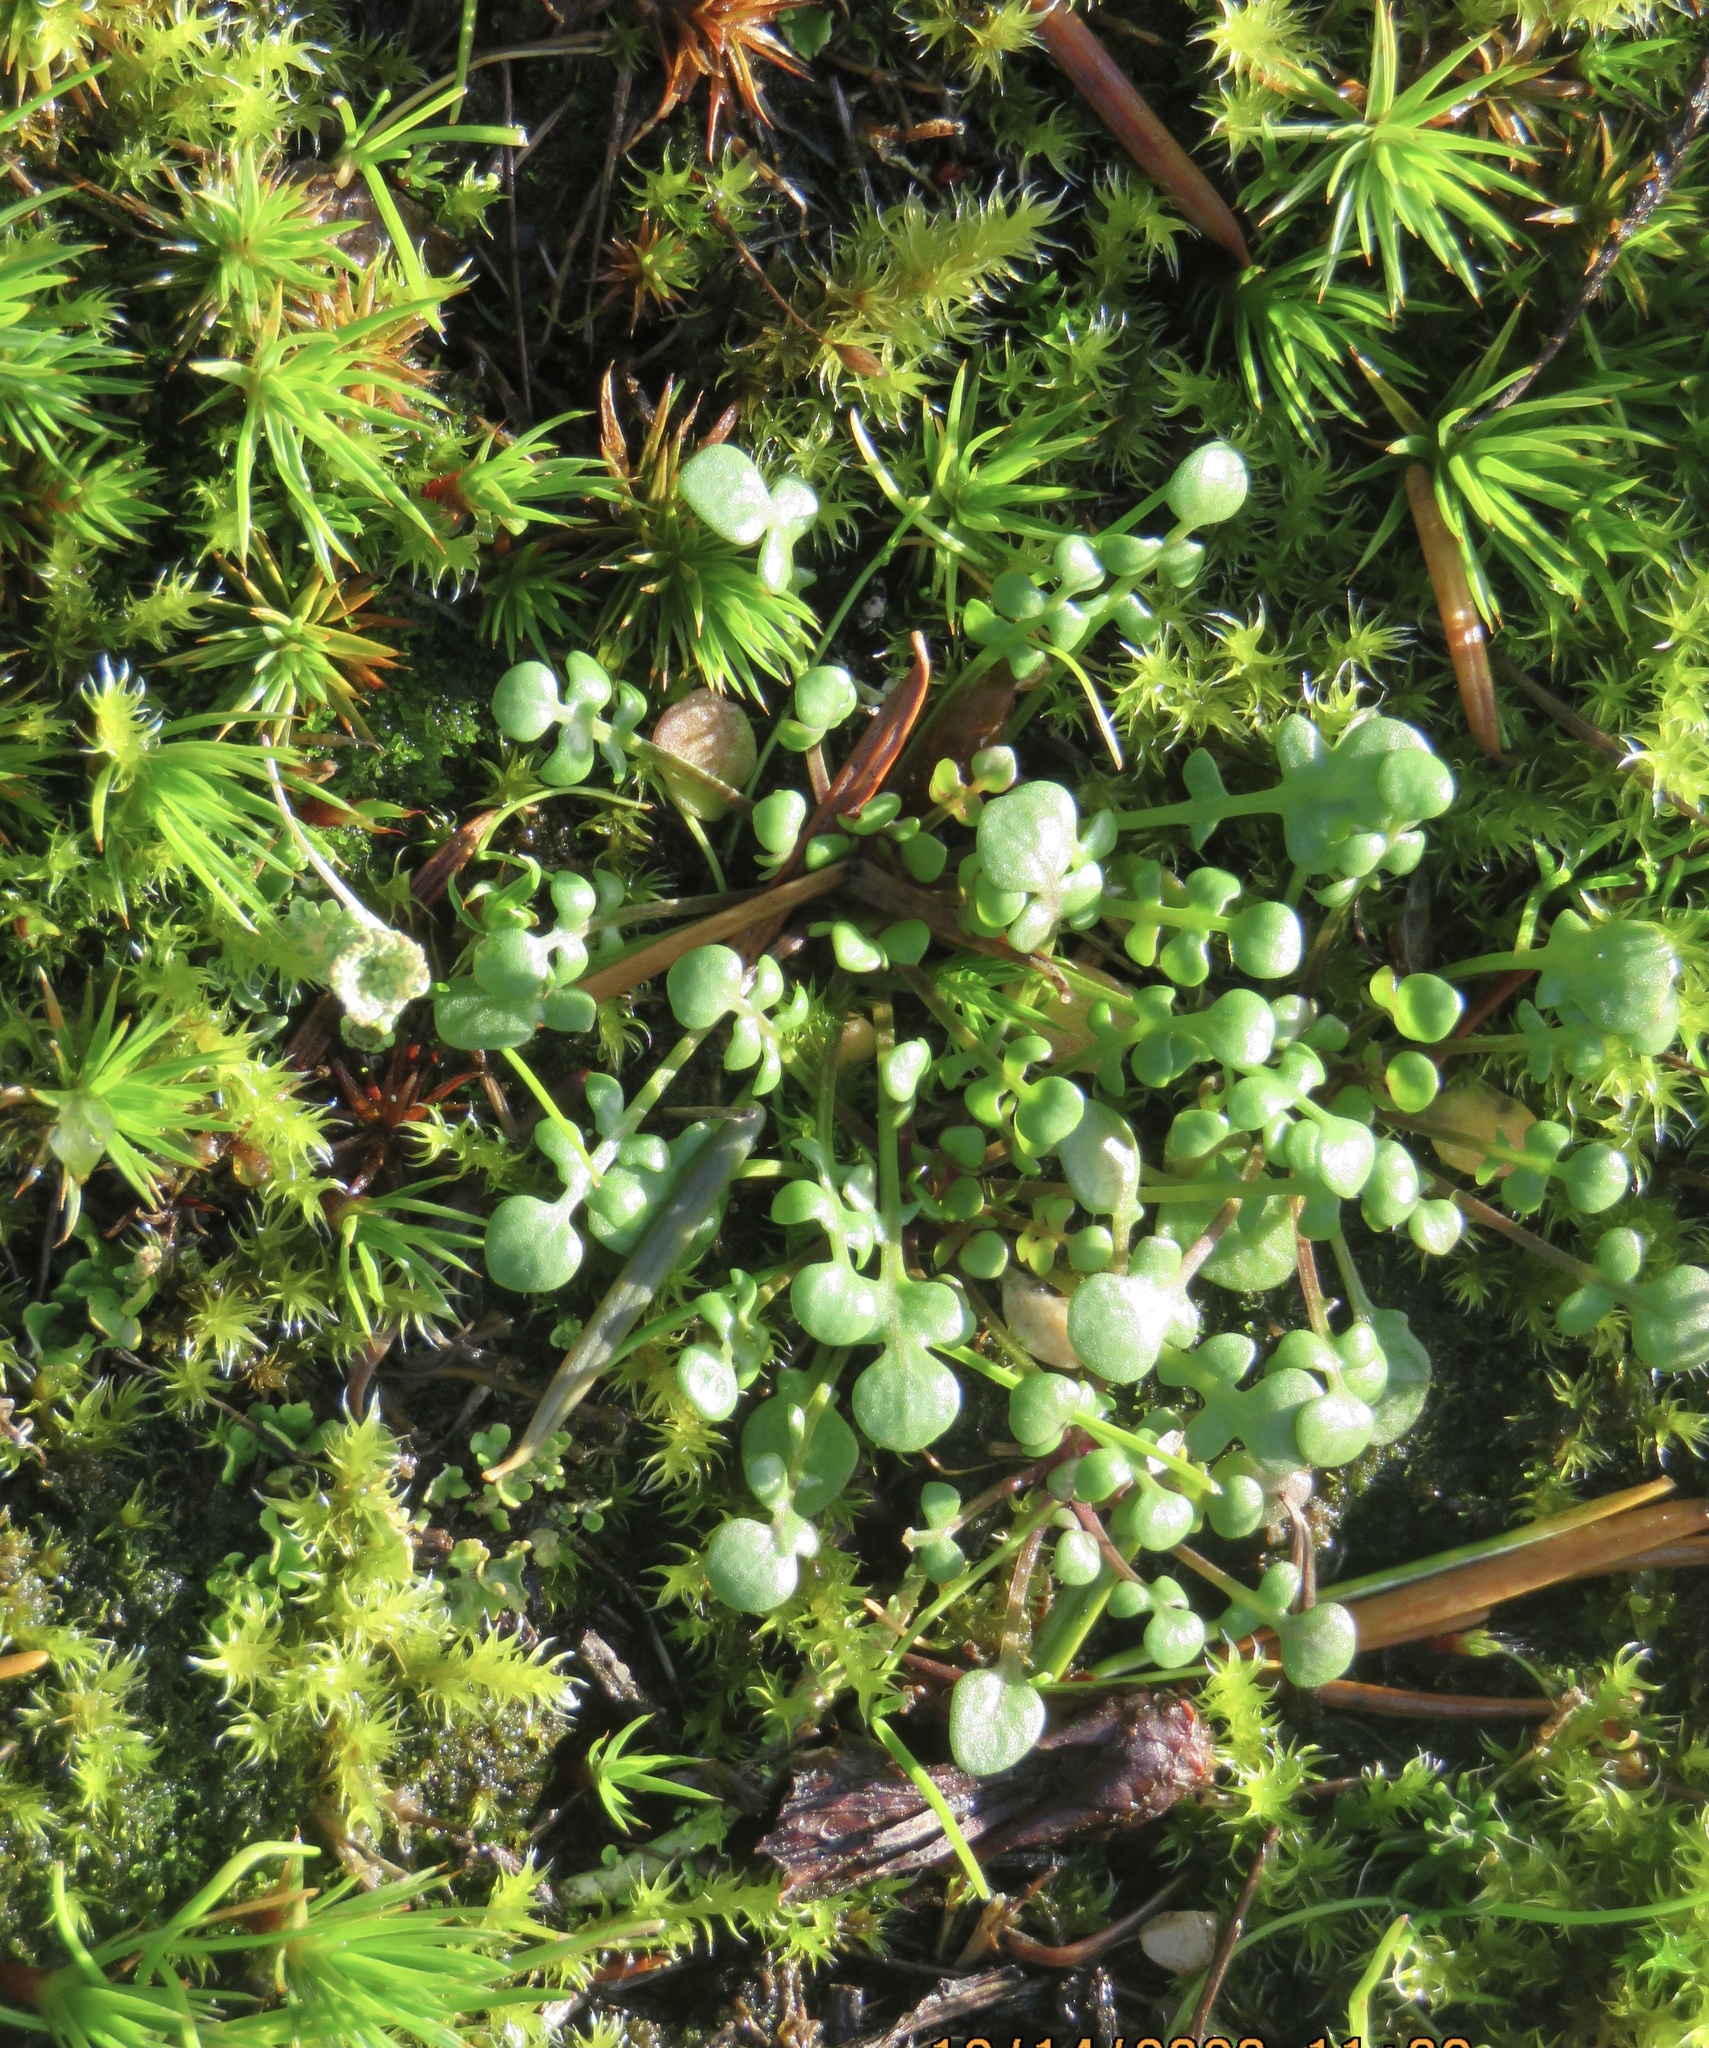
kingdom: Plantae
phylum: Tracheophyta
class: Magnoliopsida
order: Brassicales
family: Brassicaceae
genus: Teesdalia
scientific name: Teesdalia nudicaulis
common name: Shepherd's cress
